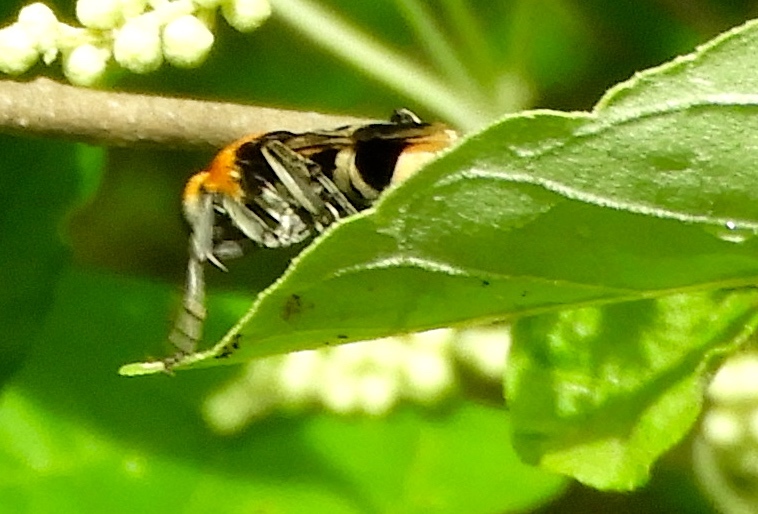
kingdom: Animalia
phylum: Arthropoda
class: Insecta
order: Hymenoptera
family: Pompilidae
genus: Psorthaspis
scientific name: Psorthaspis formosa
